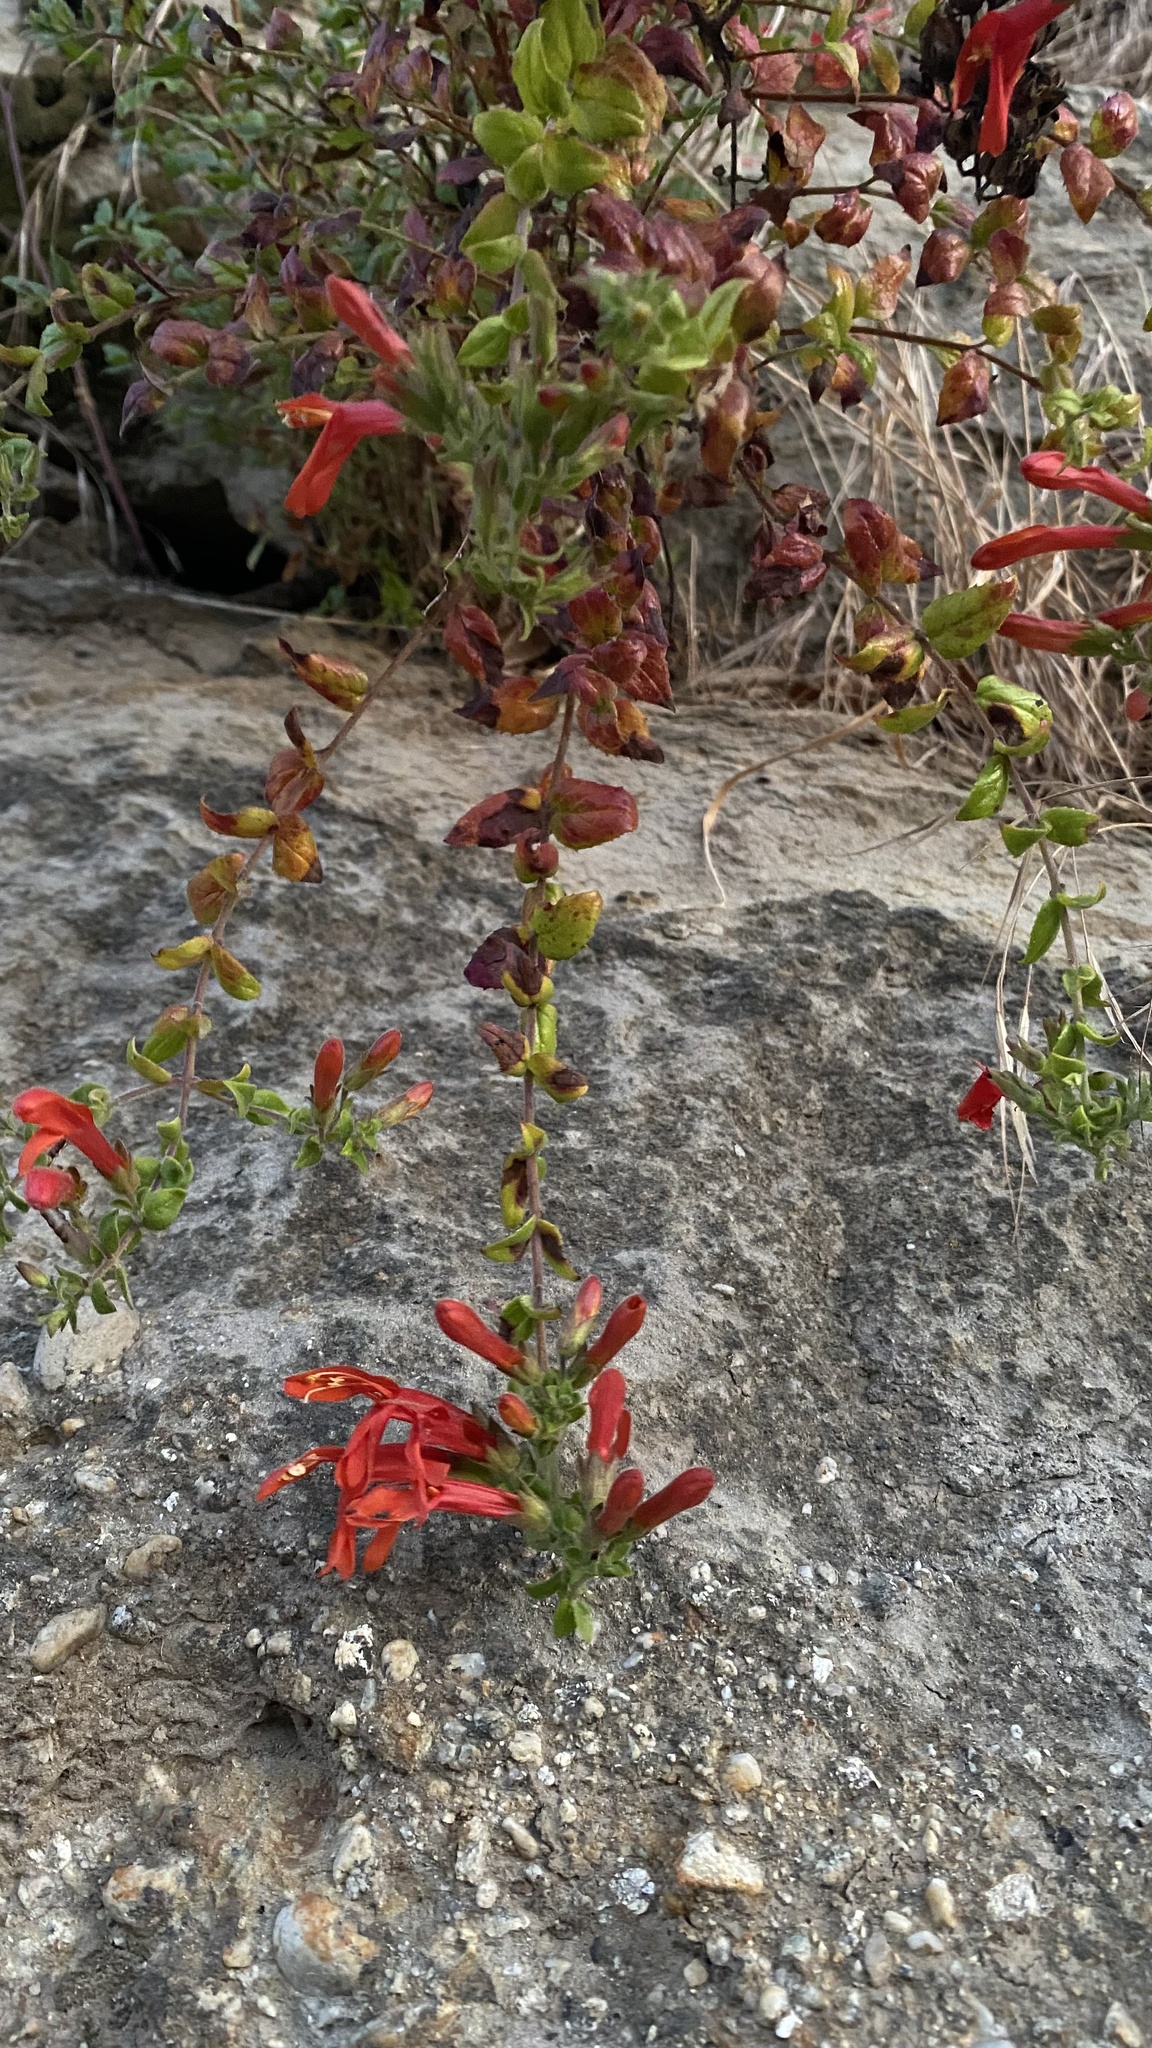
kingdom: Plantae
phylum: Tracheophyta
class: Magnoliopsida
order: Lamiales
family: Plantaginaceae
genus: Keckiella
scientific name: Keckiella cordifolia
